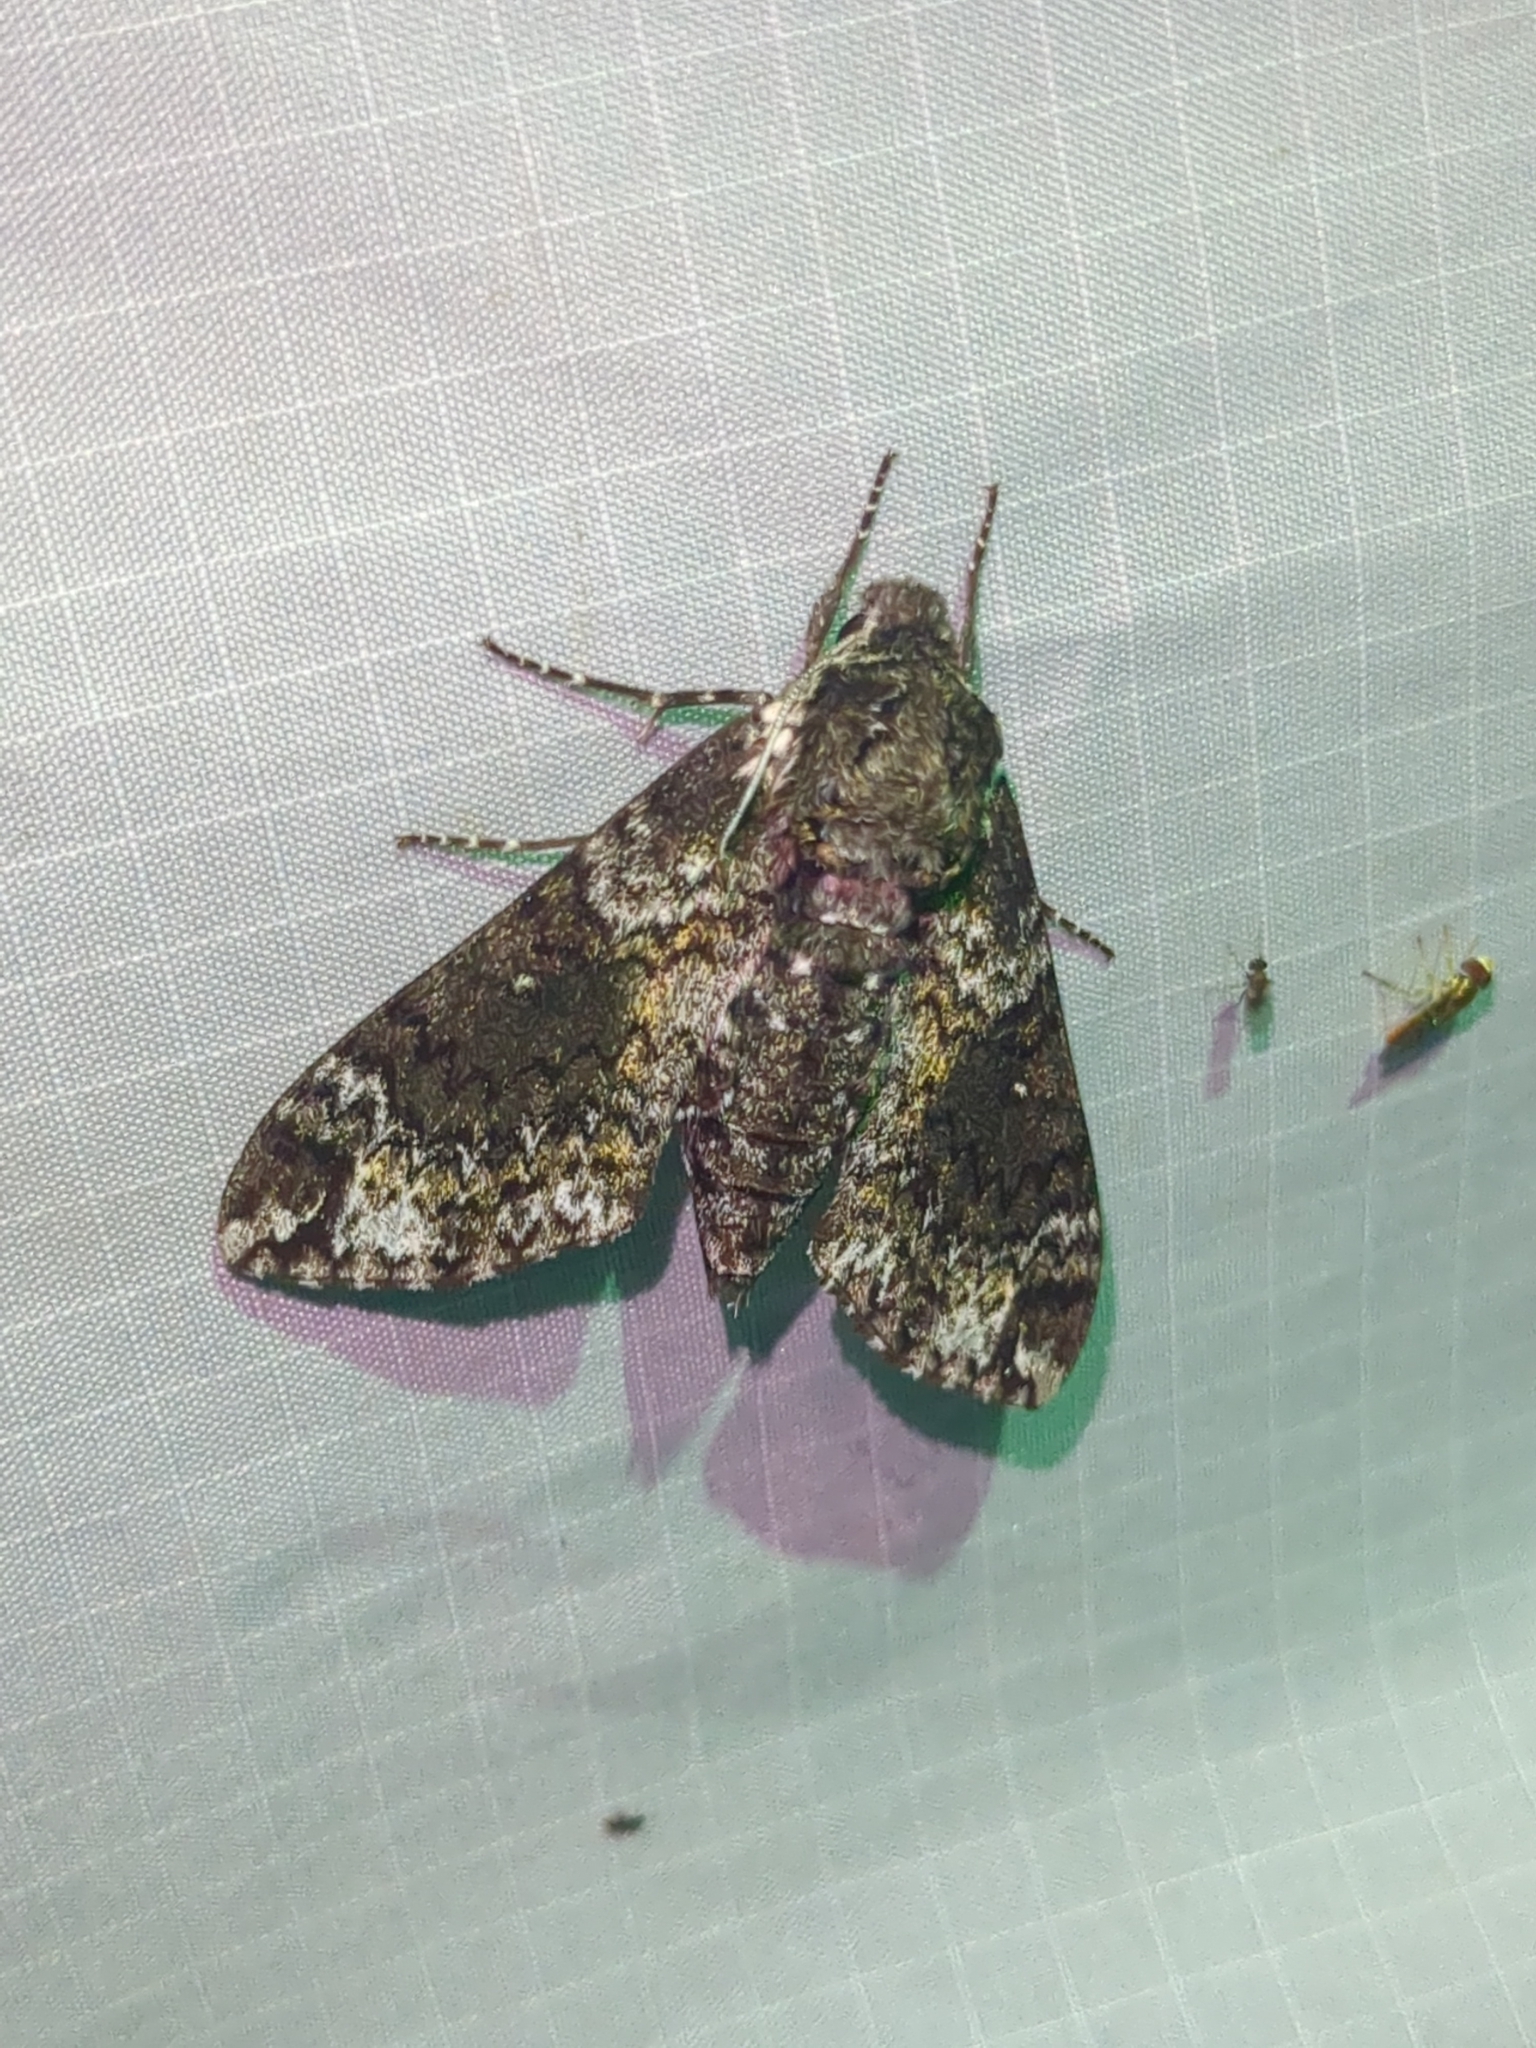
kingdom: Animalia
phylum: Arthropoda
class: Insecta
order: Lepidoptera
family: Sphingidae
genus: Dolba
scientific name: Dolba hyloeus
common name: Pawpaw sphinx
